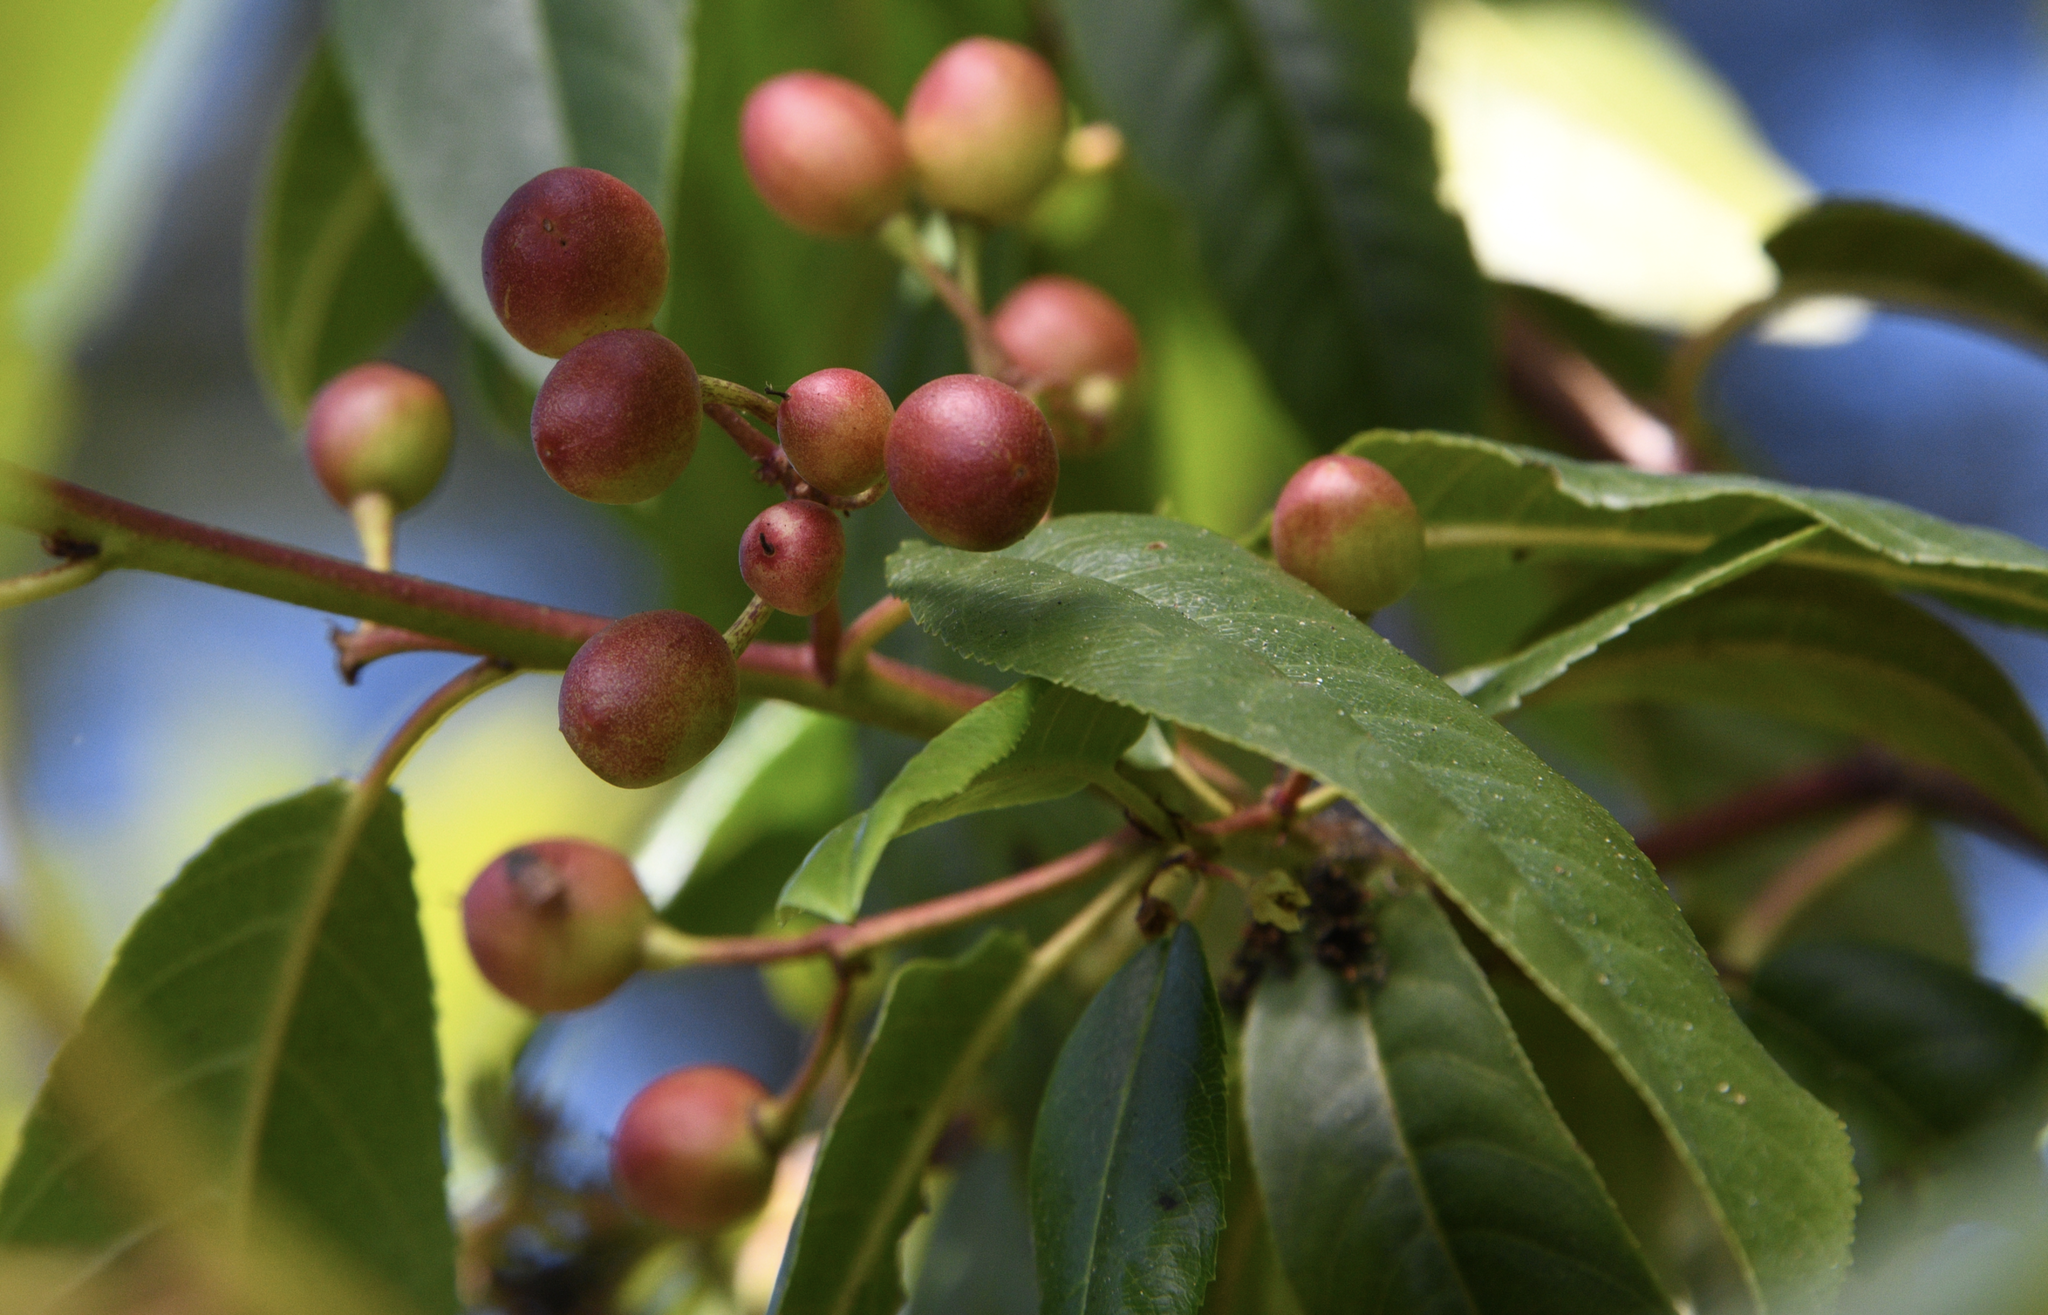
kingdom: Plantae
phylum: Tracheophyta
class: Magnoliopsida
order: Rosales
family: Rhamnaceae
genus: Frangula
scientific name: Frangula californica
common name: California buckthorn
